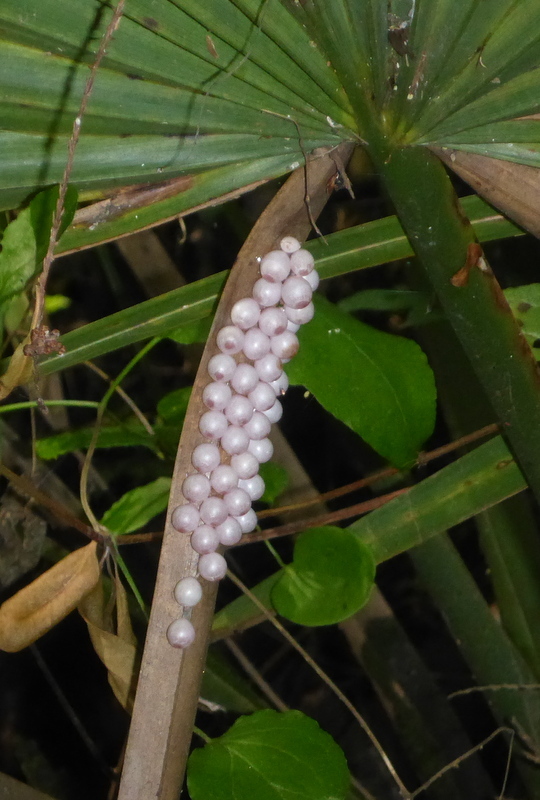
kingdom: Animalia
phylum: Mollusca
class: Gastropoda
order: Architaenioglossa
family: Ampullariidae
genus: Pomacea
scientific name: Pomacea paludosa
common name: Florida applesnail
